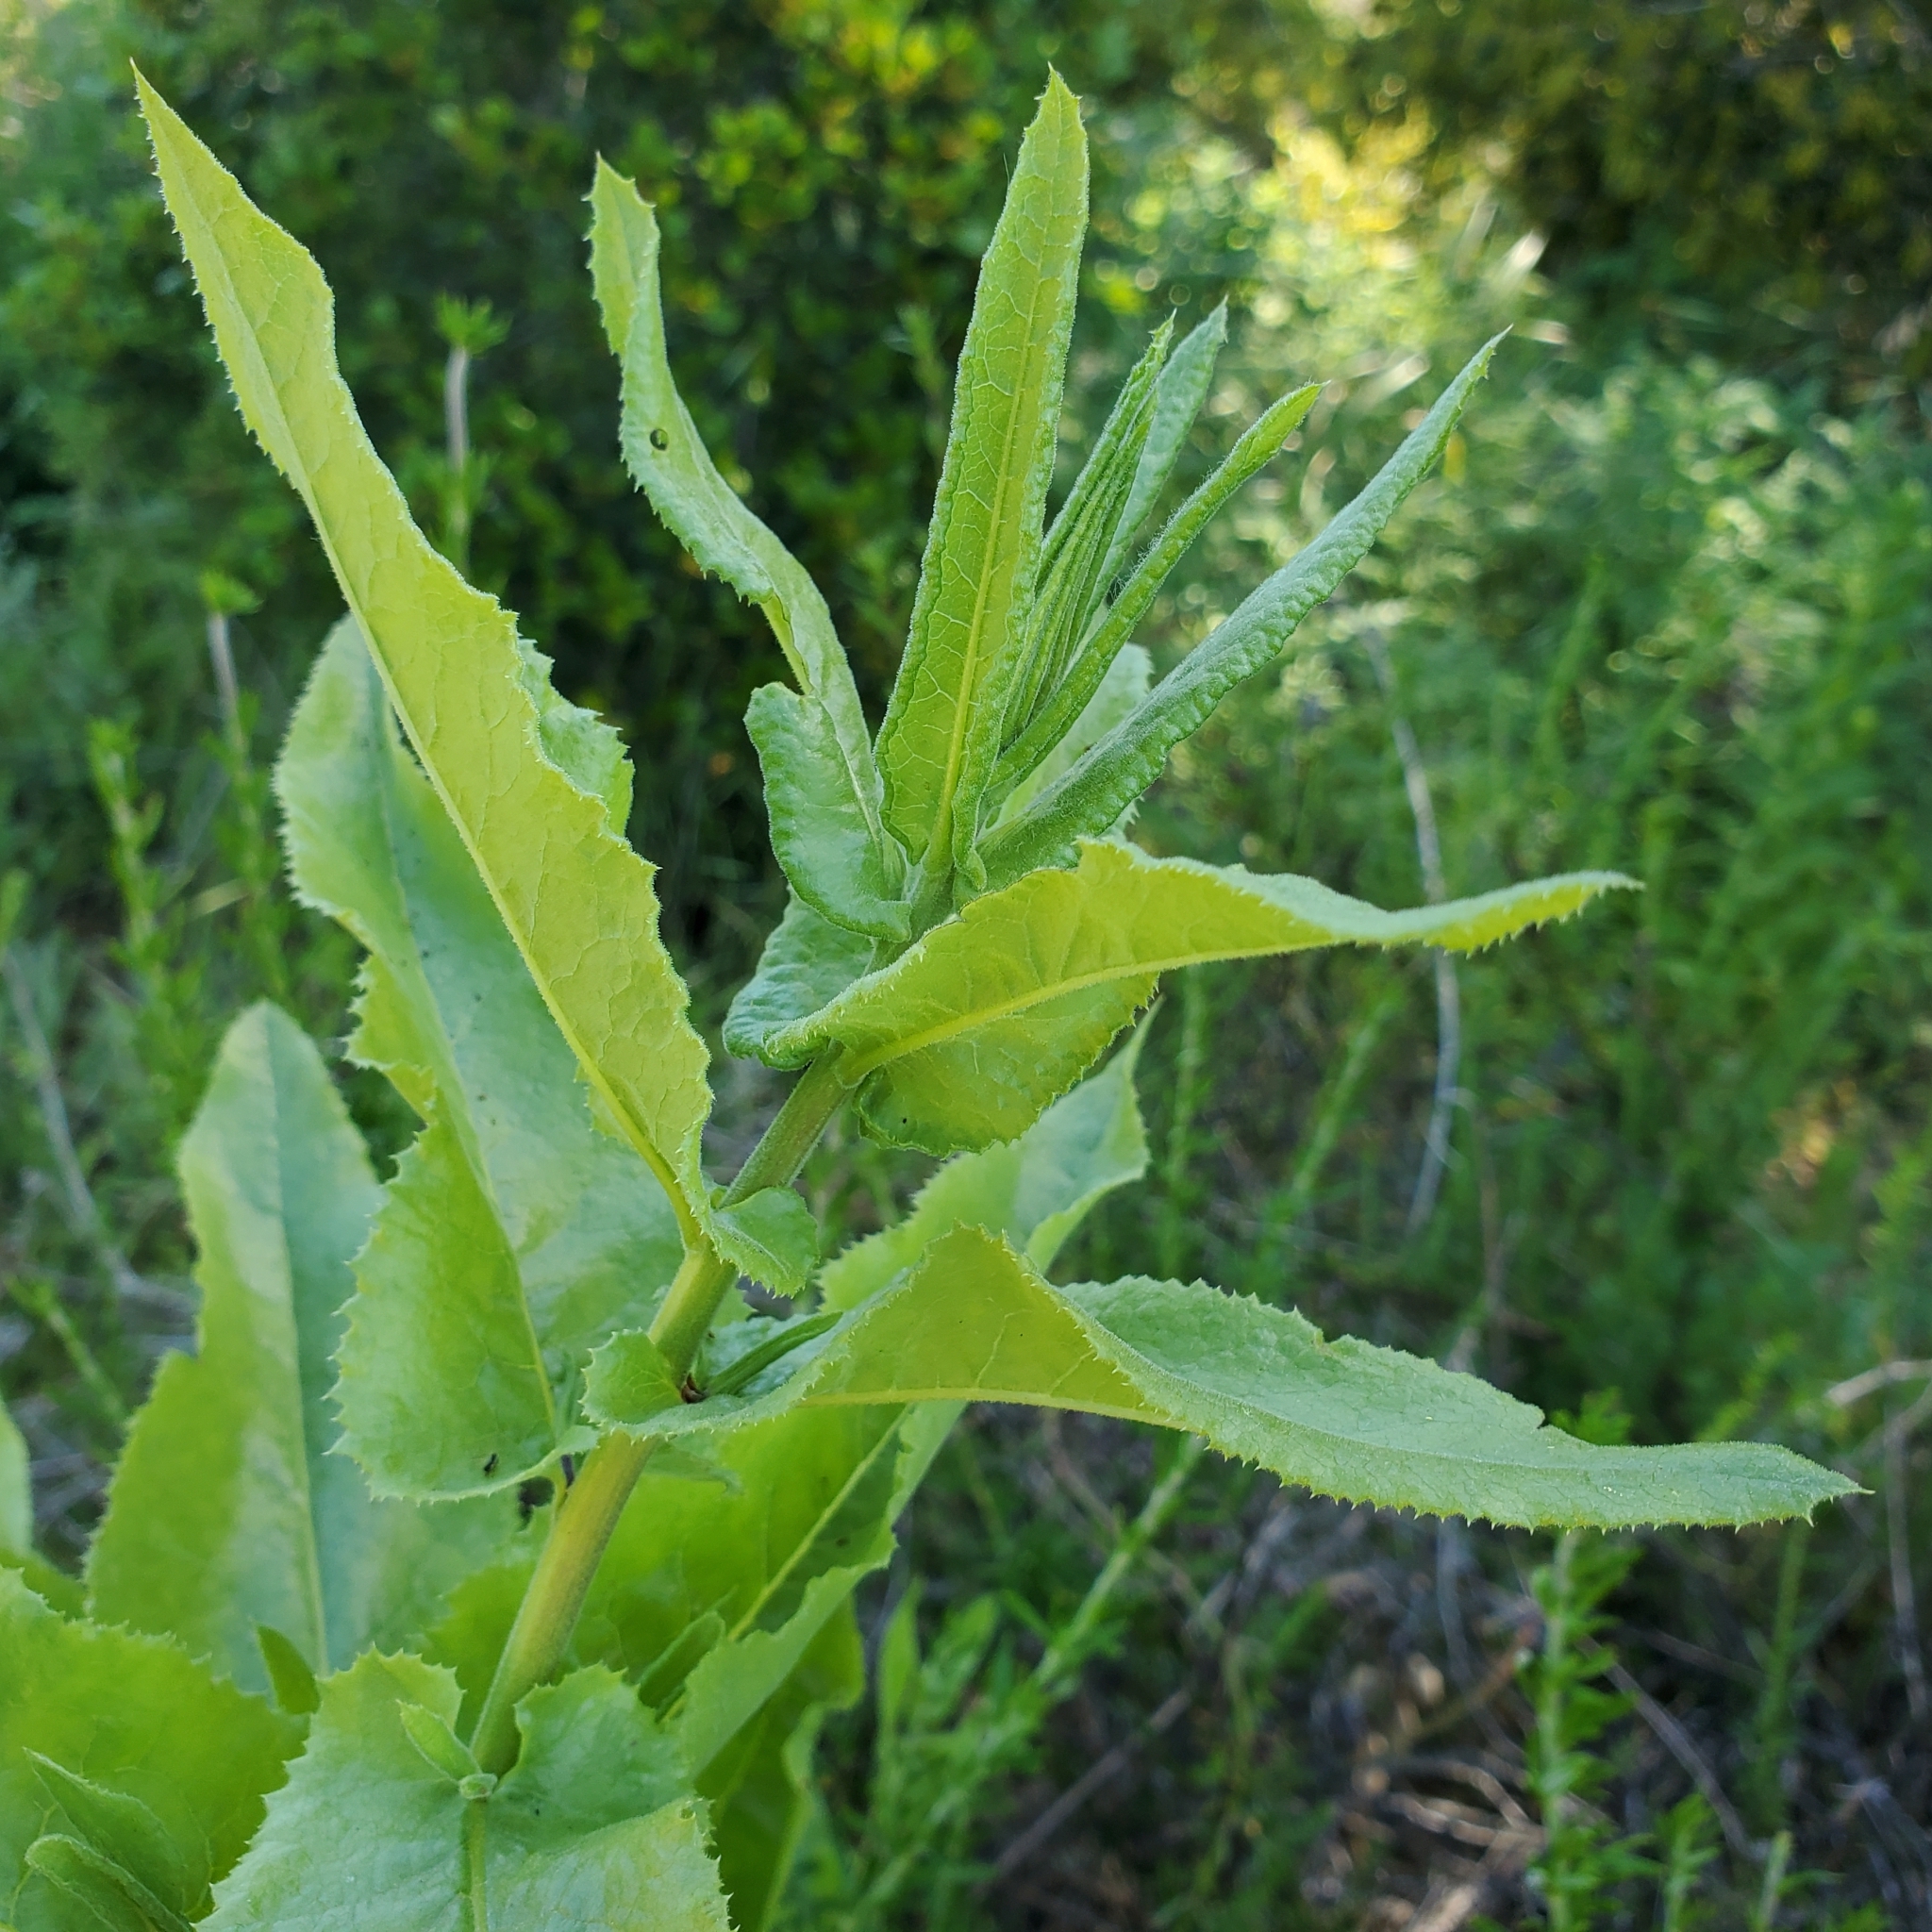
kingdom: Plantae
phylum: Tracheophyta
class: Magnoliopsida
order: Asterales
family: Asteraceae
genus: Acourtia
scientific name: Acourtia microcephala
